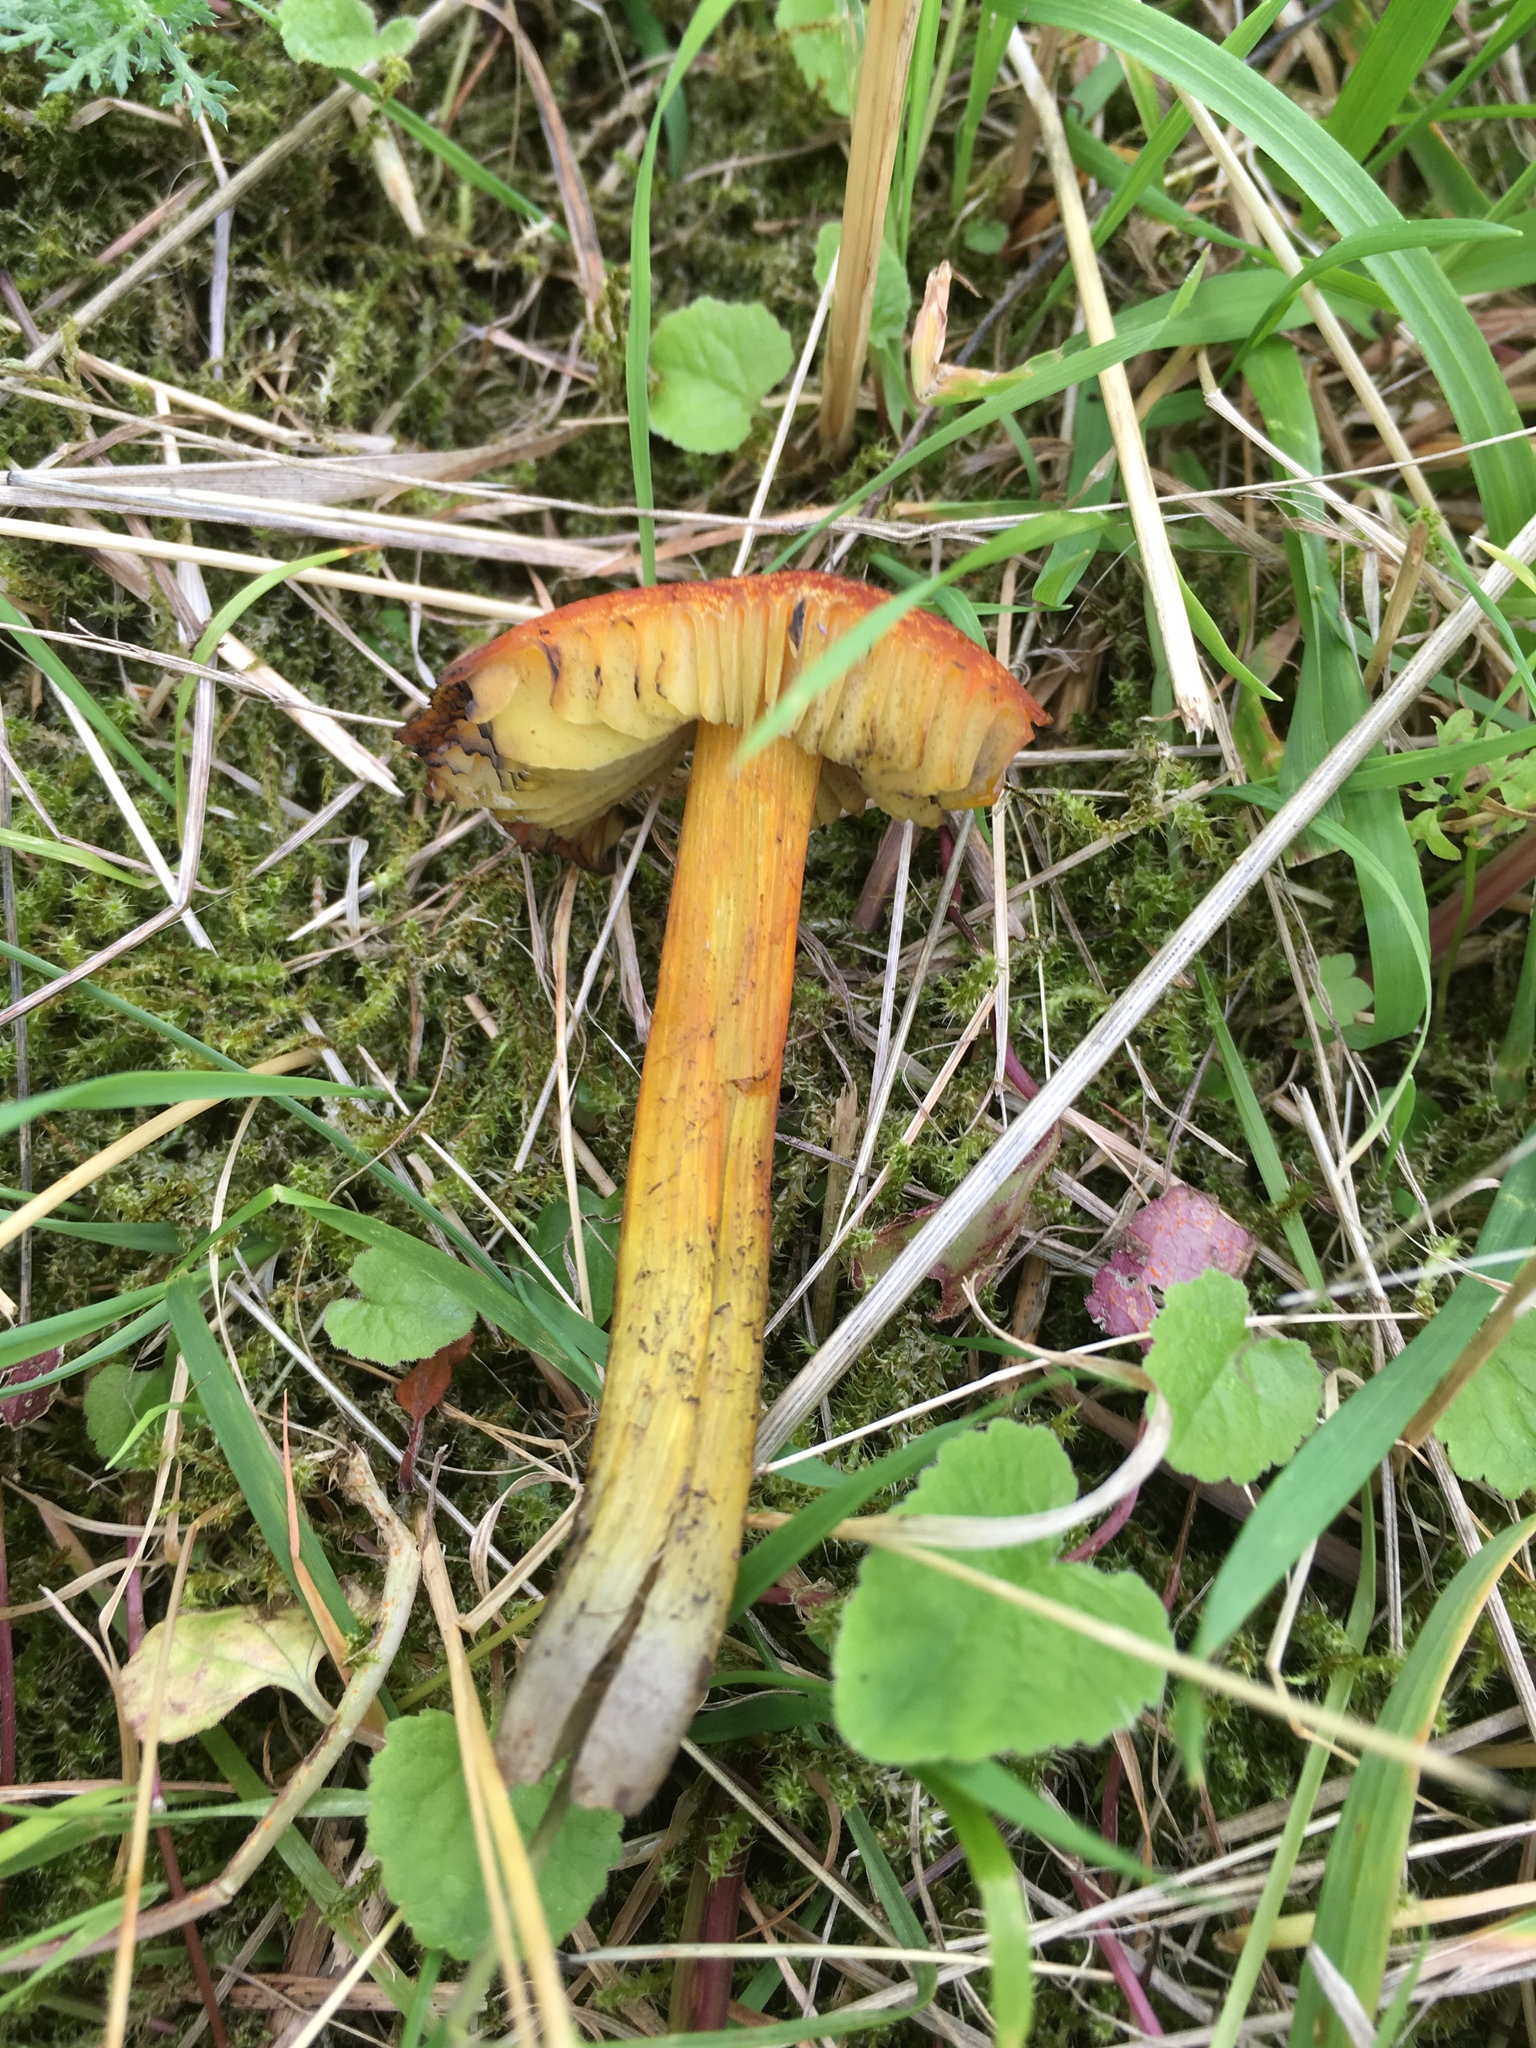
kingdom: Fungi
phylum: Basidiomycota
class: Agaricomycetes
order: Agaricales
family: Hygrophoraceae
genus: Hygrocybe
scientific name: Hygrocybe conica
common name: Blackening wax-cap
